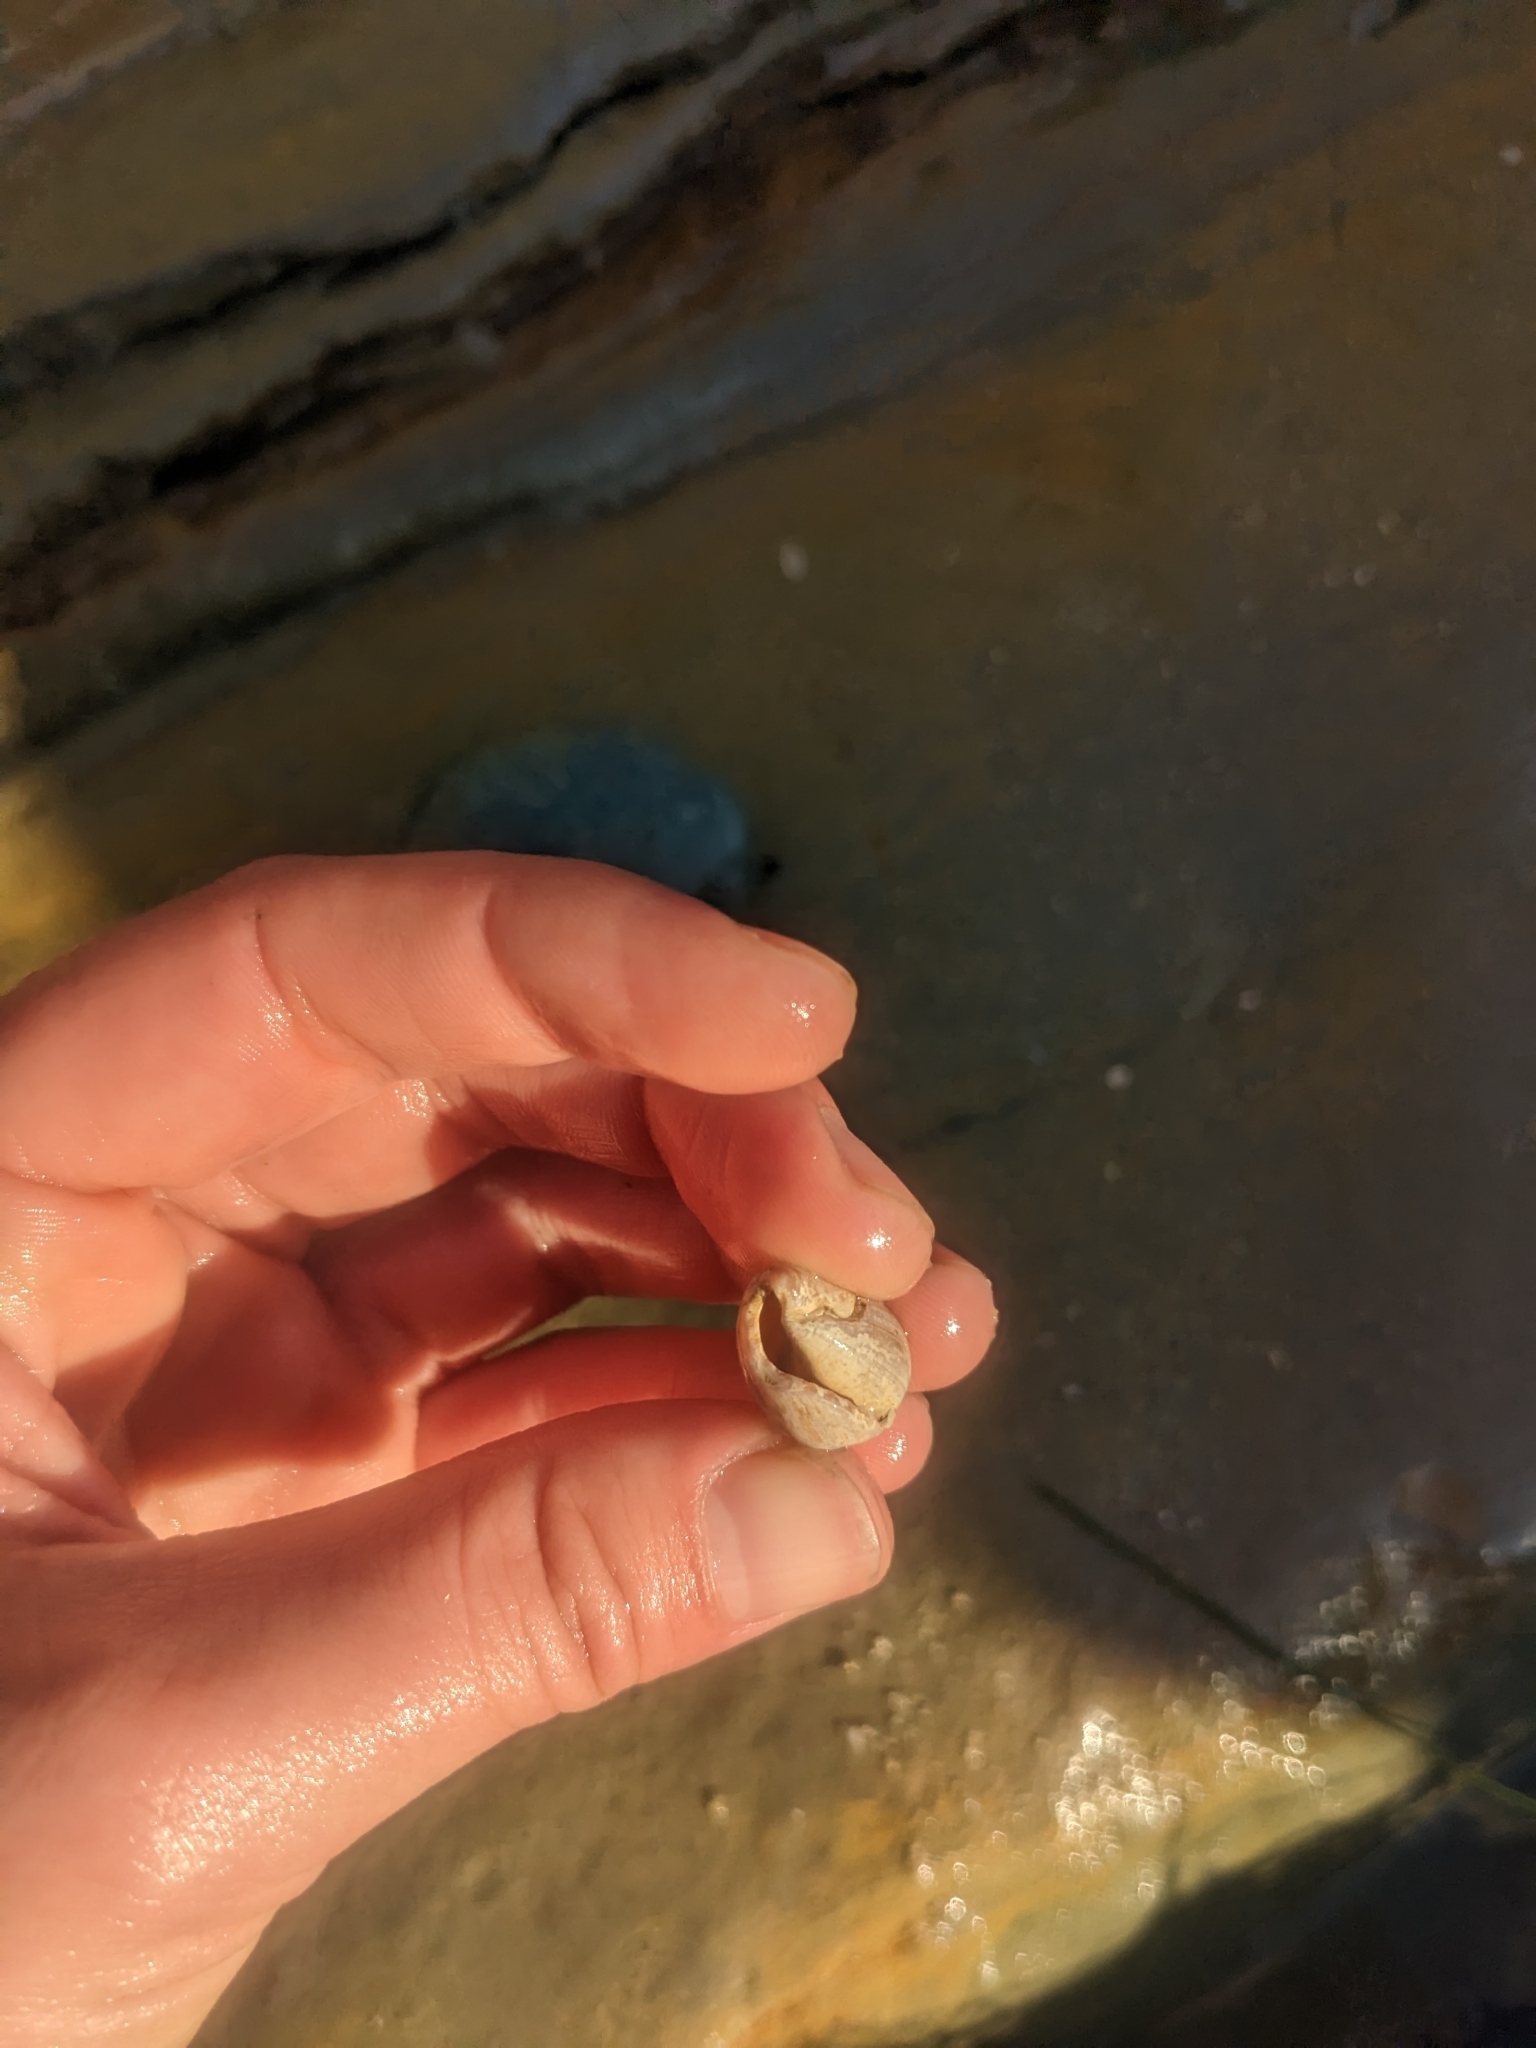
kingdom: Animalia
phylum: Mollusca
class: Gastropoda
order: Neogastropoda
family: Conidae
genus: Californiconus
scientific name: Californiconus californicus
